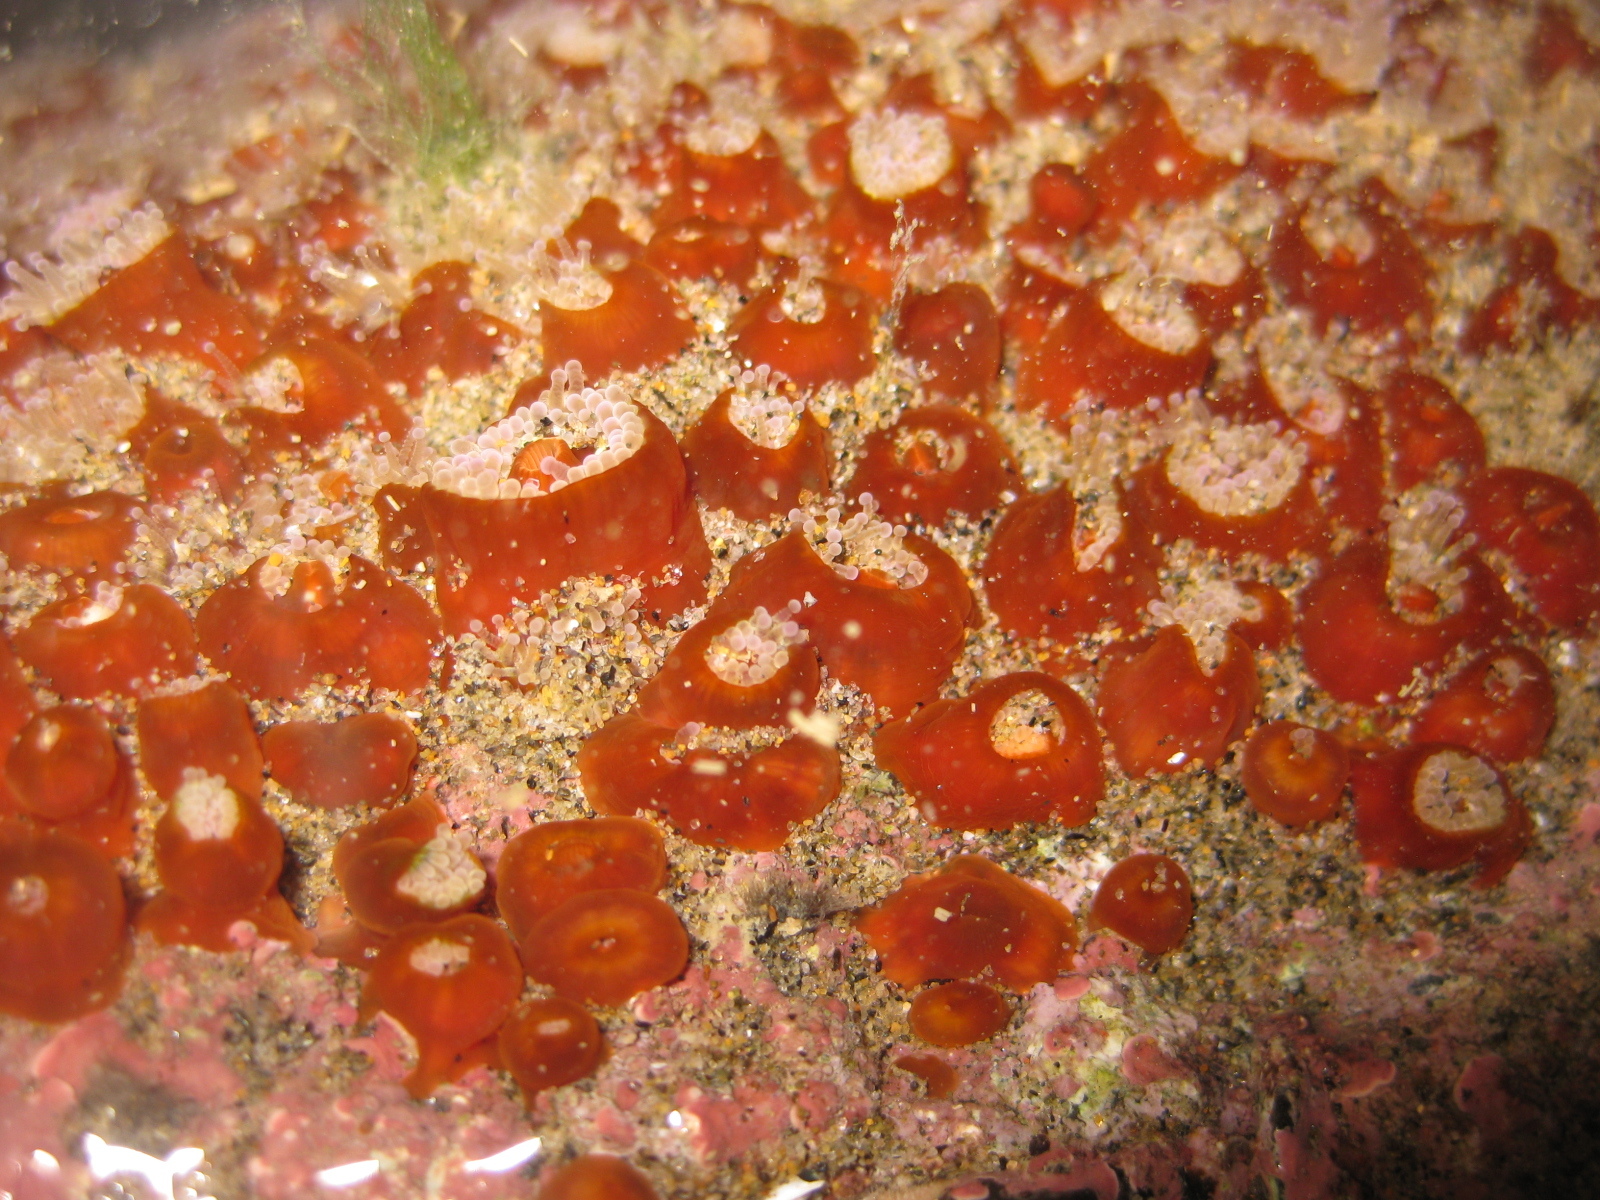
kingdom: Animalia
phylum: Cnidaria
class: Anthozoa
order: Corallimorpharia
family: Corallimorphidae
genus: Corynactis
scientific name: Corynactis australis
